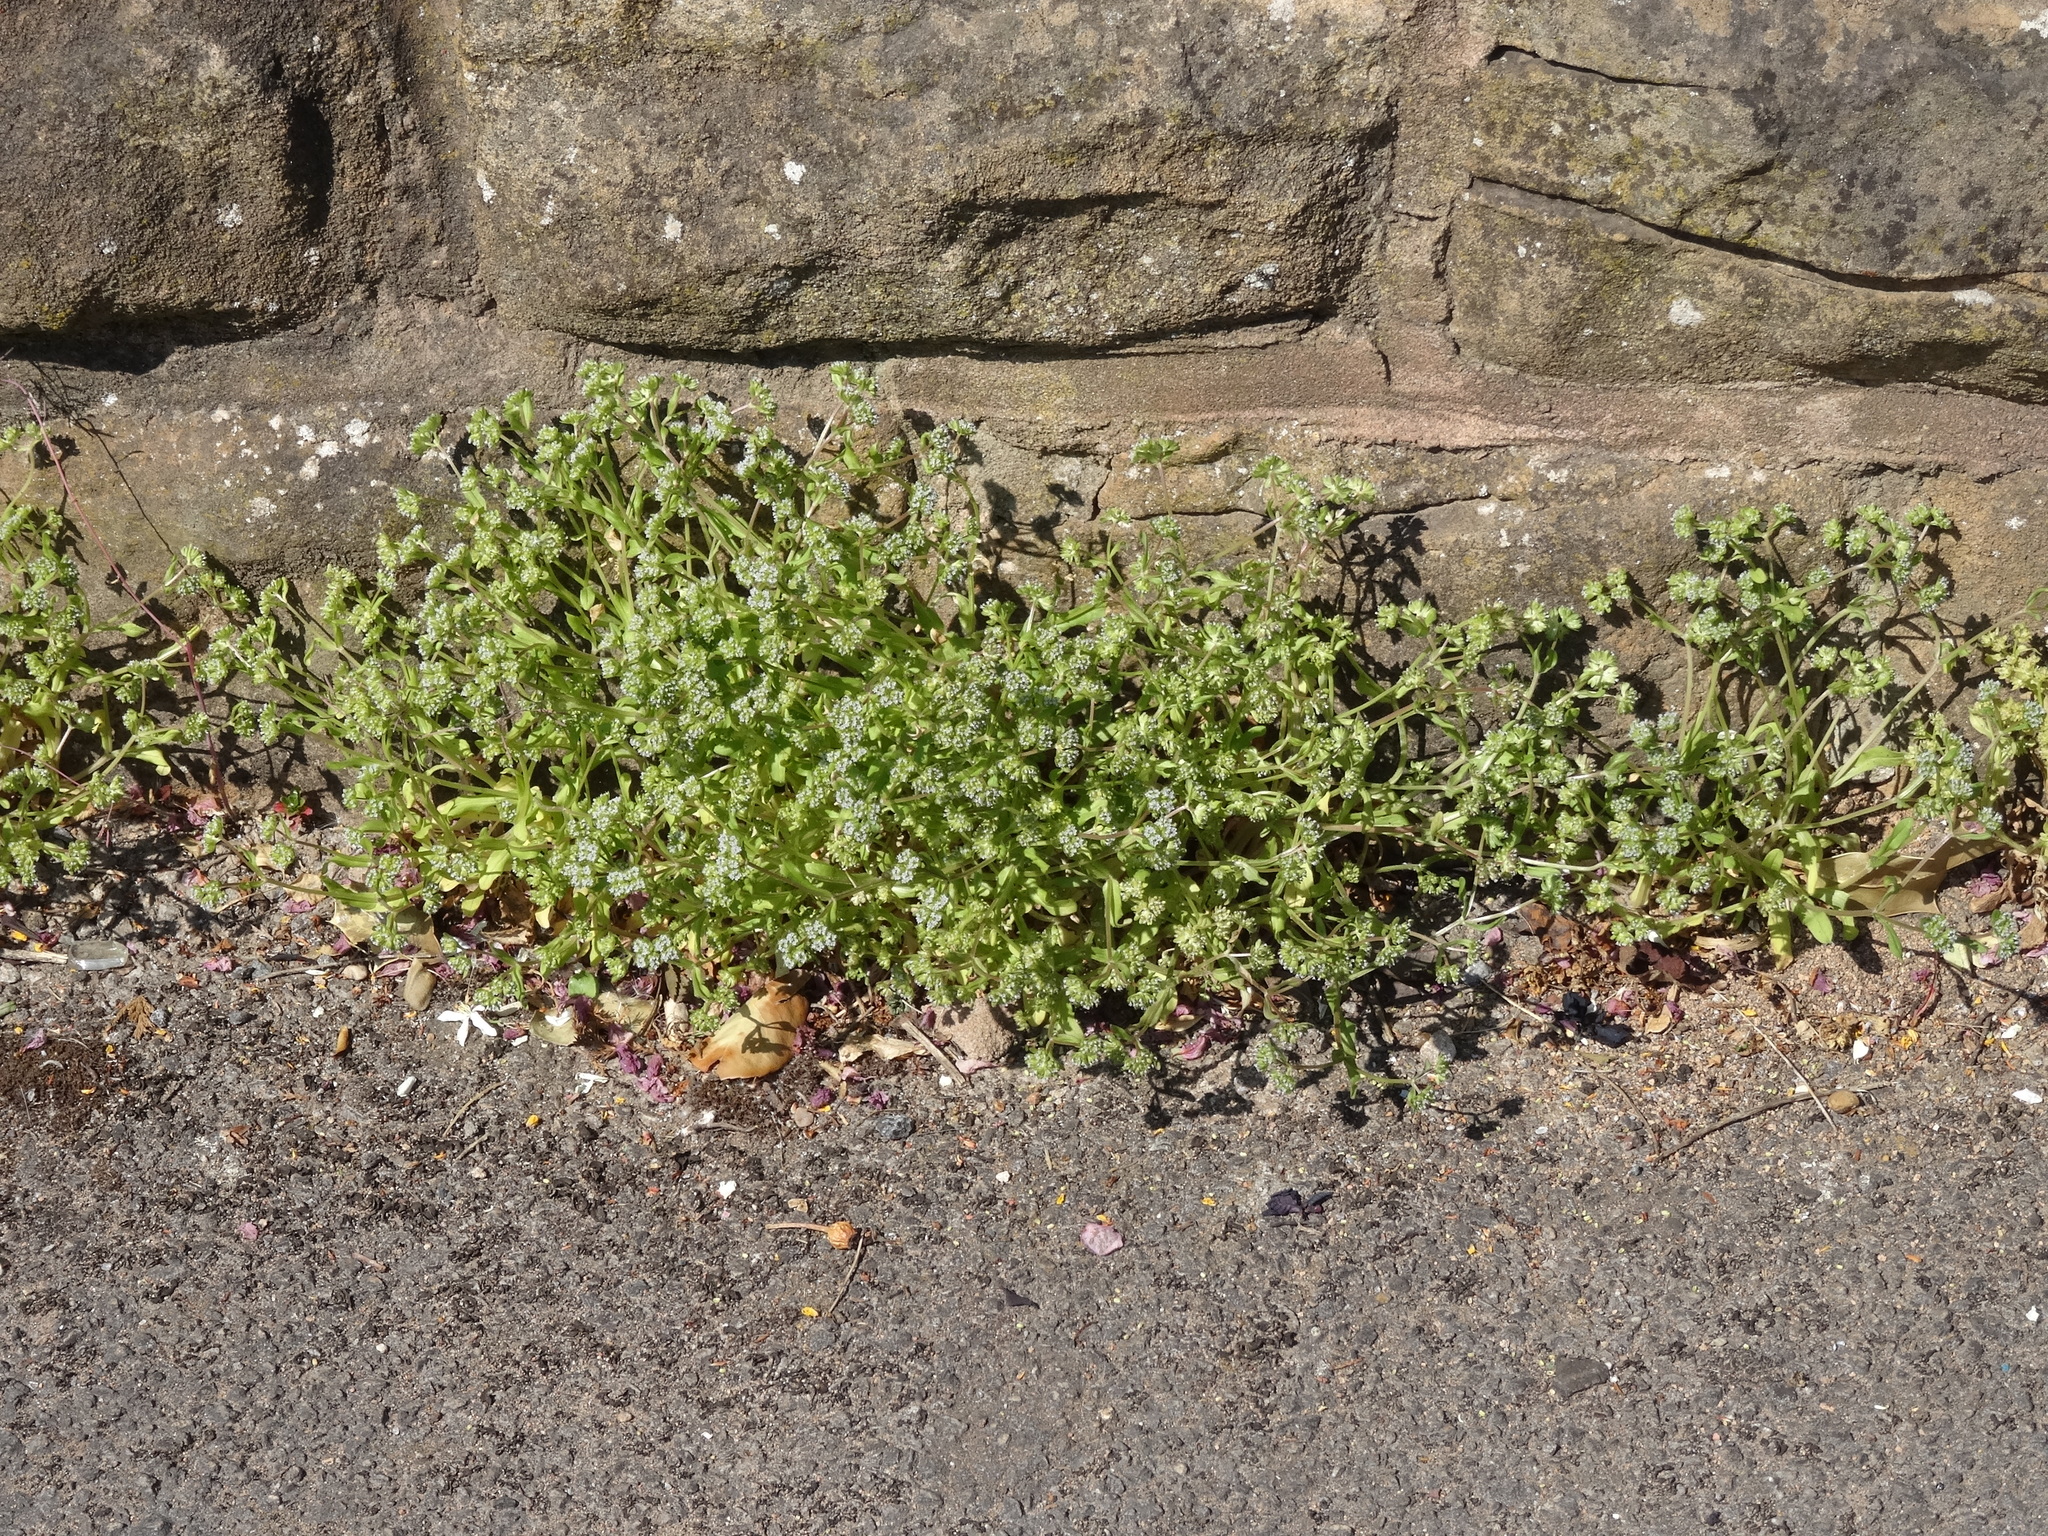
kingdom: Plantae
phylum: Tracheophyta
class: Magnoliopsida
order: Dipsacales
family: Caprifoliaceae
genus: Valerianella
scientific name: Valerianella locusta
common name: Common cornsalad
